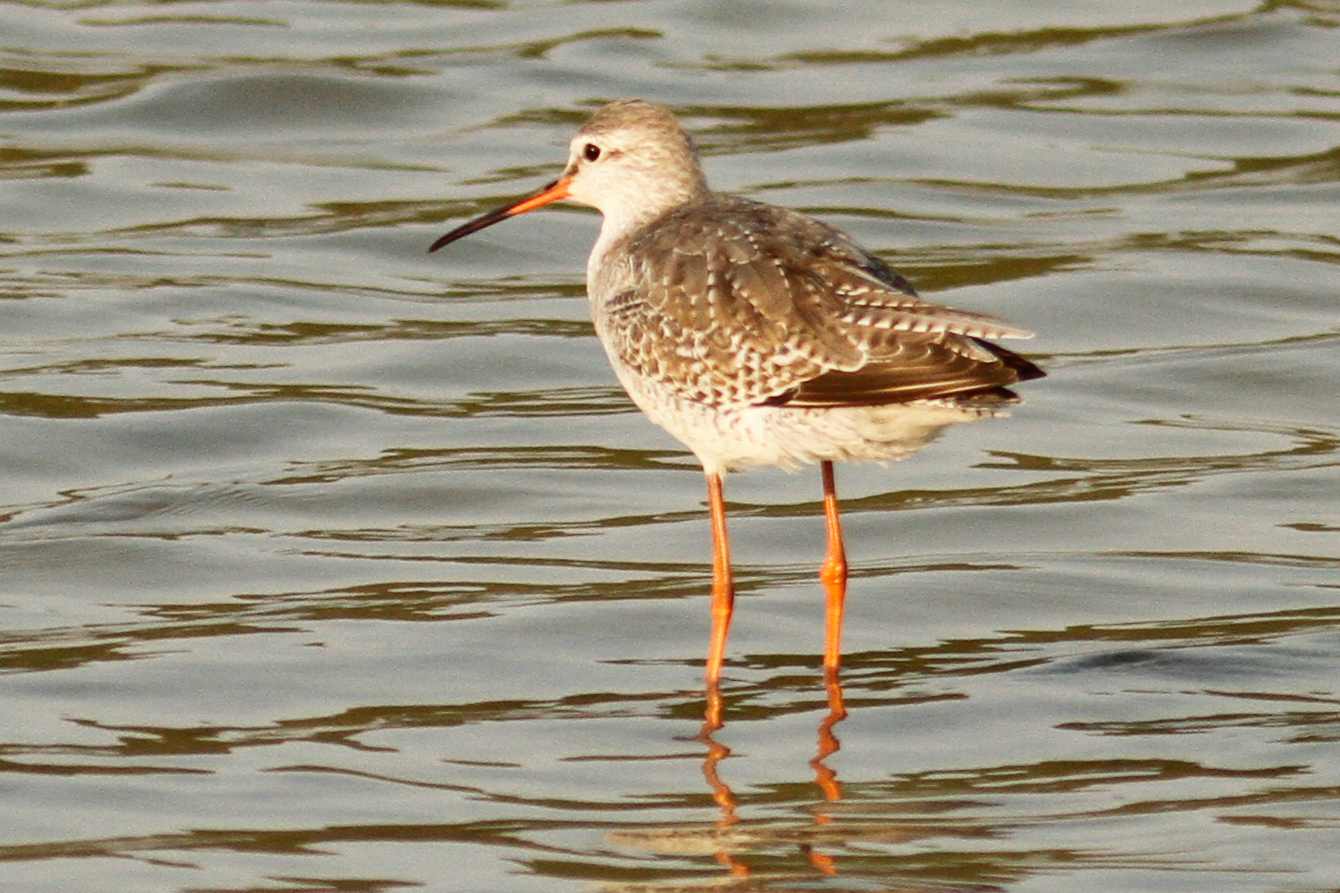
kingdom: Animalia
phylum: Chordata
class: Aves
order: Charadriiformes
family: Scolopacidae
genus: Tringa
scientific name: Tringa erythropus
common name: Spotted redshank
